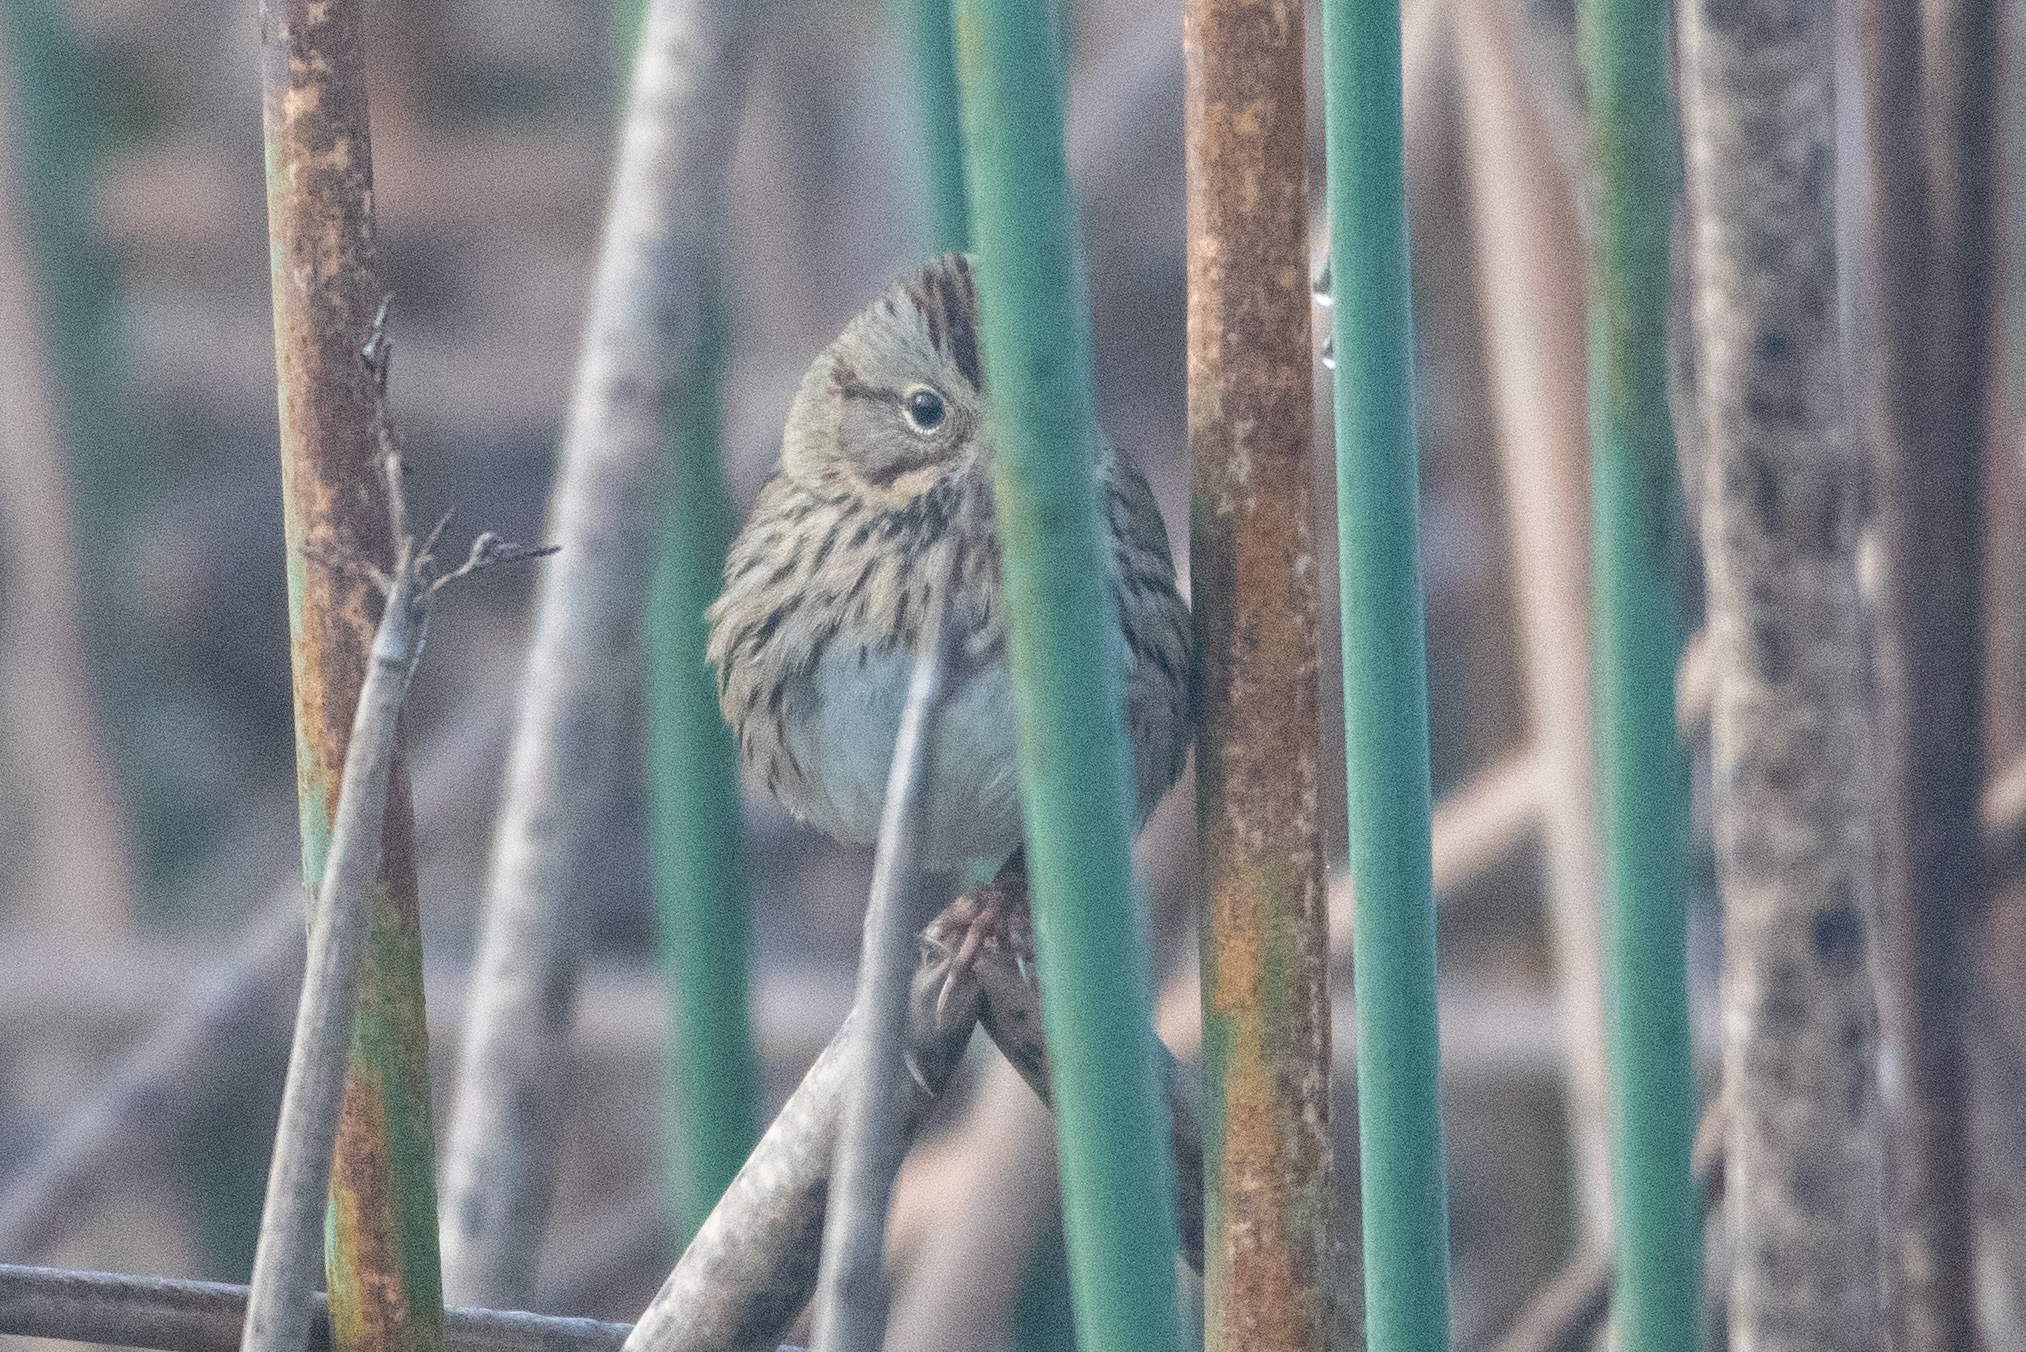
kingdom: Animalia
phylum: Chordata
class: Aves
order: Passeriformes
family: Passerellidae
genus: Melospiza
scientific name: Melospiza lincolnii
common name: Lincoln's sparrow
